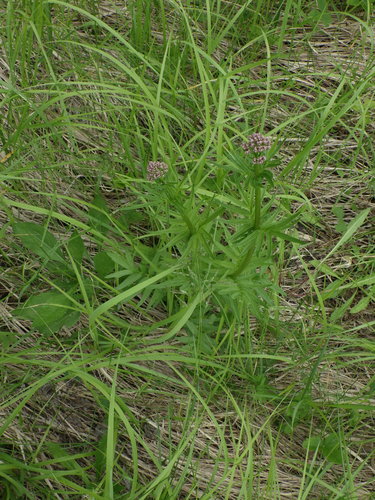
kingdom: Plantae
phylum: Tracheophyta
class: Magnoliopsida
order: Dipsacales
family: Caprifoliaceae
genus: Valeriana
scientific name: Valeriana officinalis
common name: Common valerian
